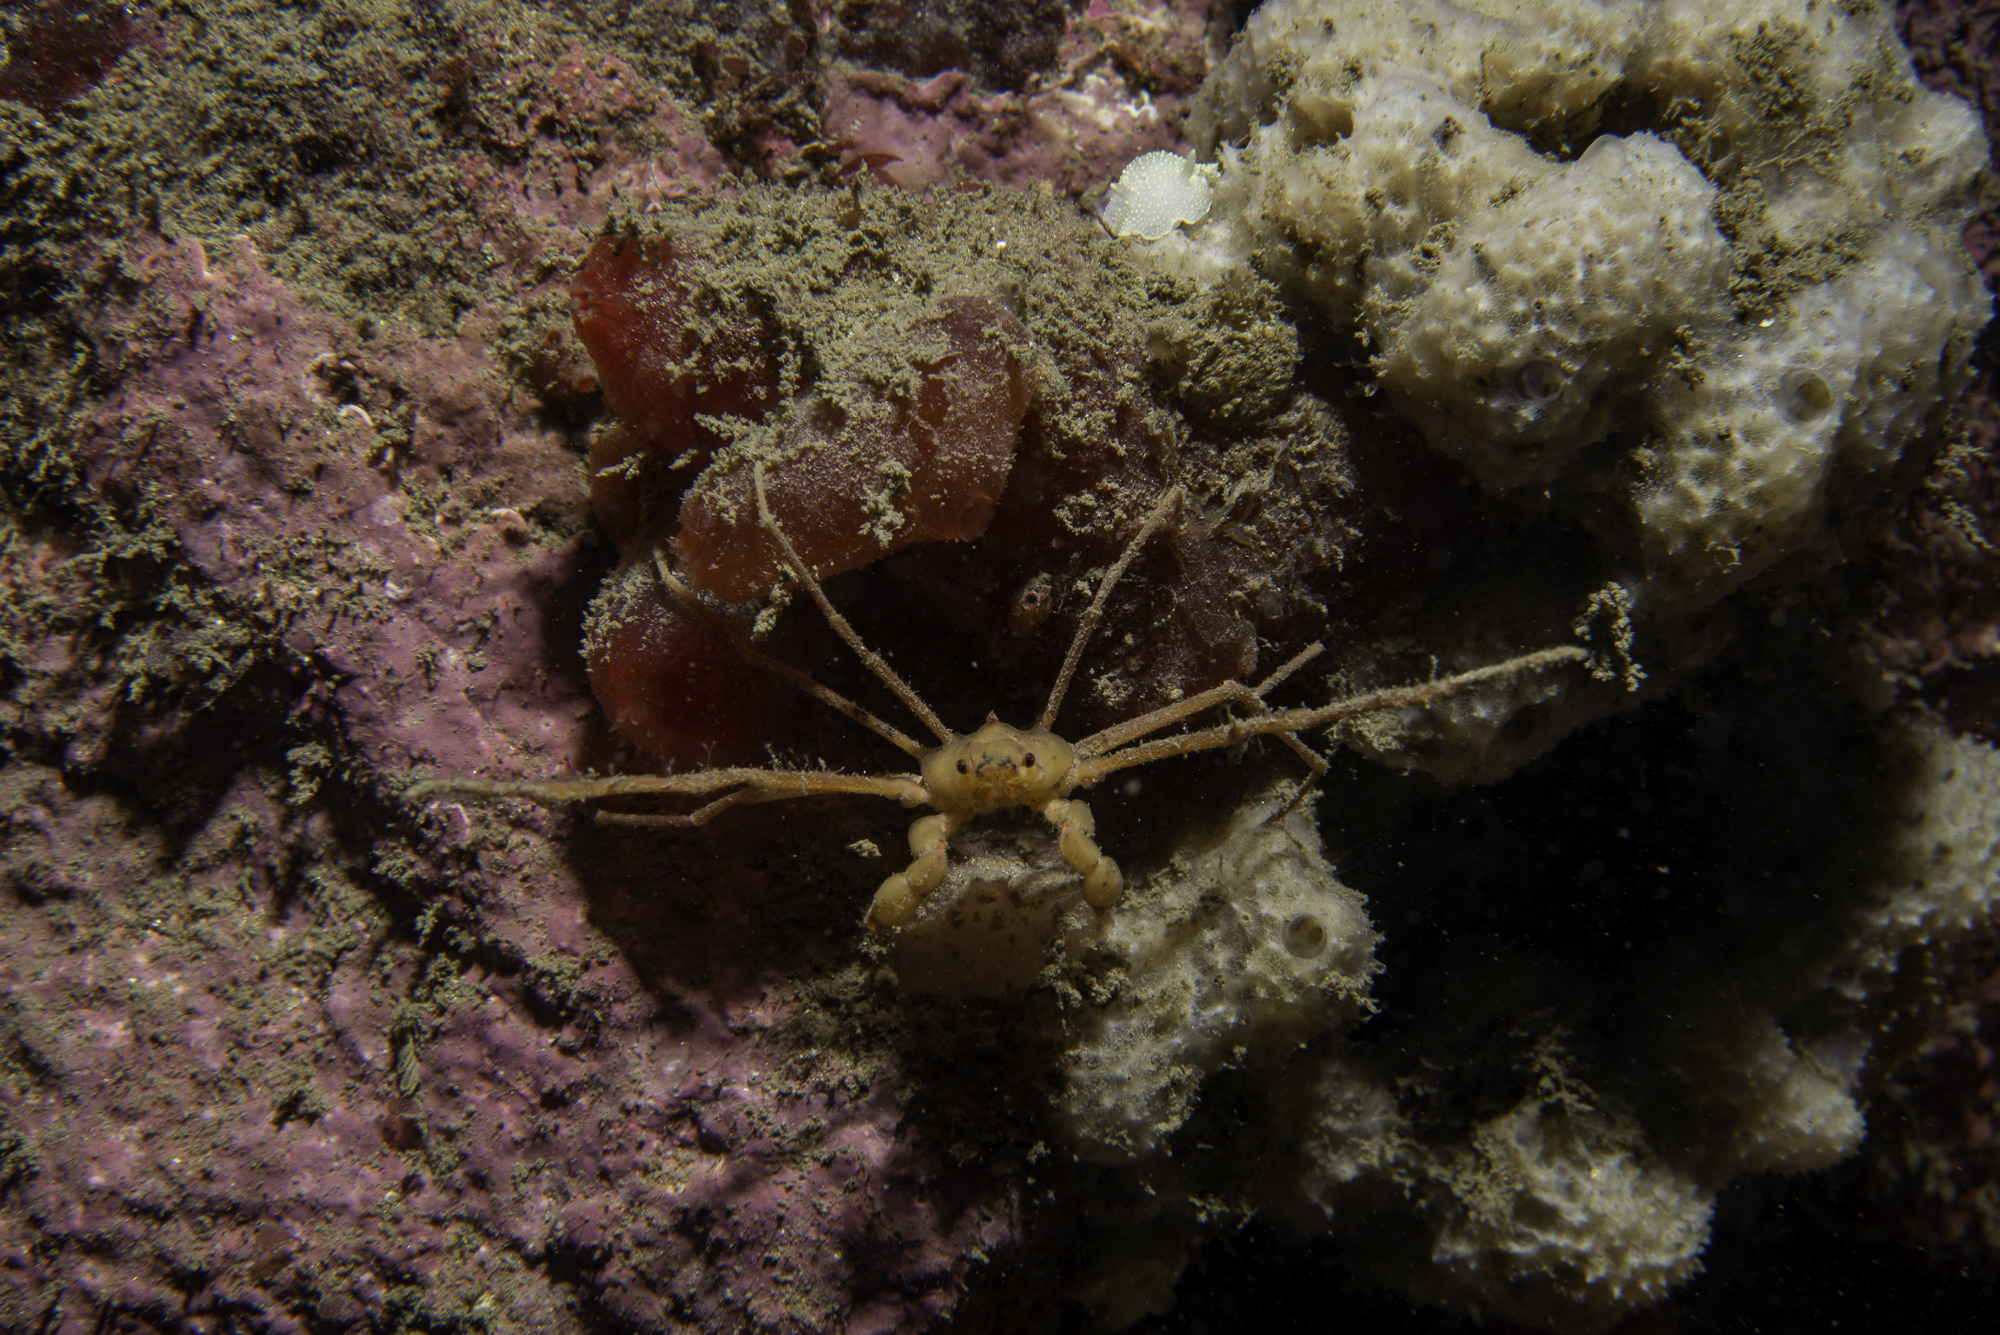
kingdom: Animalia
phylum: Arthropoda
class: Malacostraca
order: Decapoda
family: Inachidae
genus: Inachus
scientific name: Inachus phalangium
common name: Leach's spider crab
